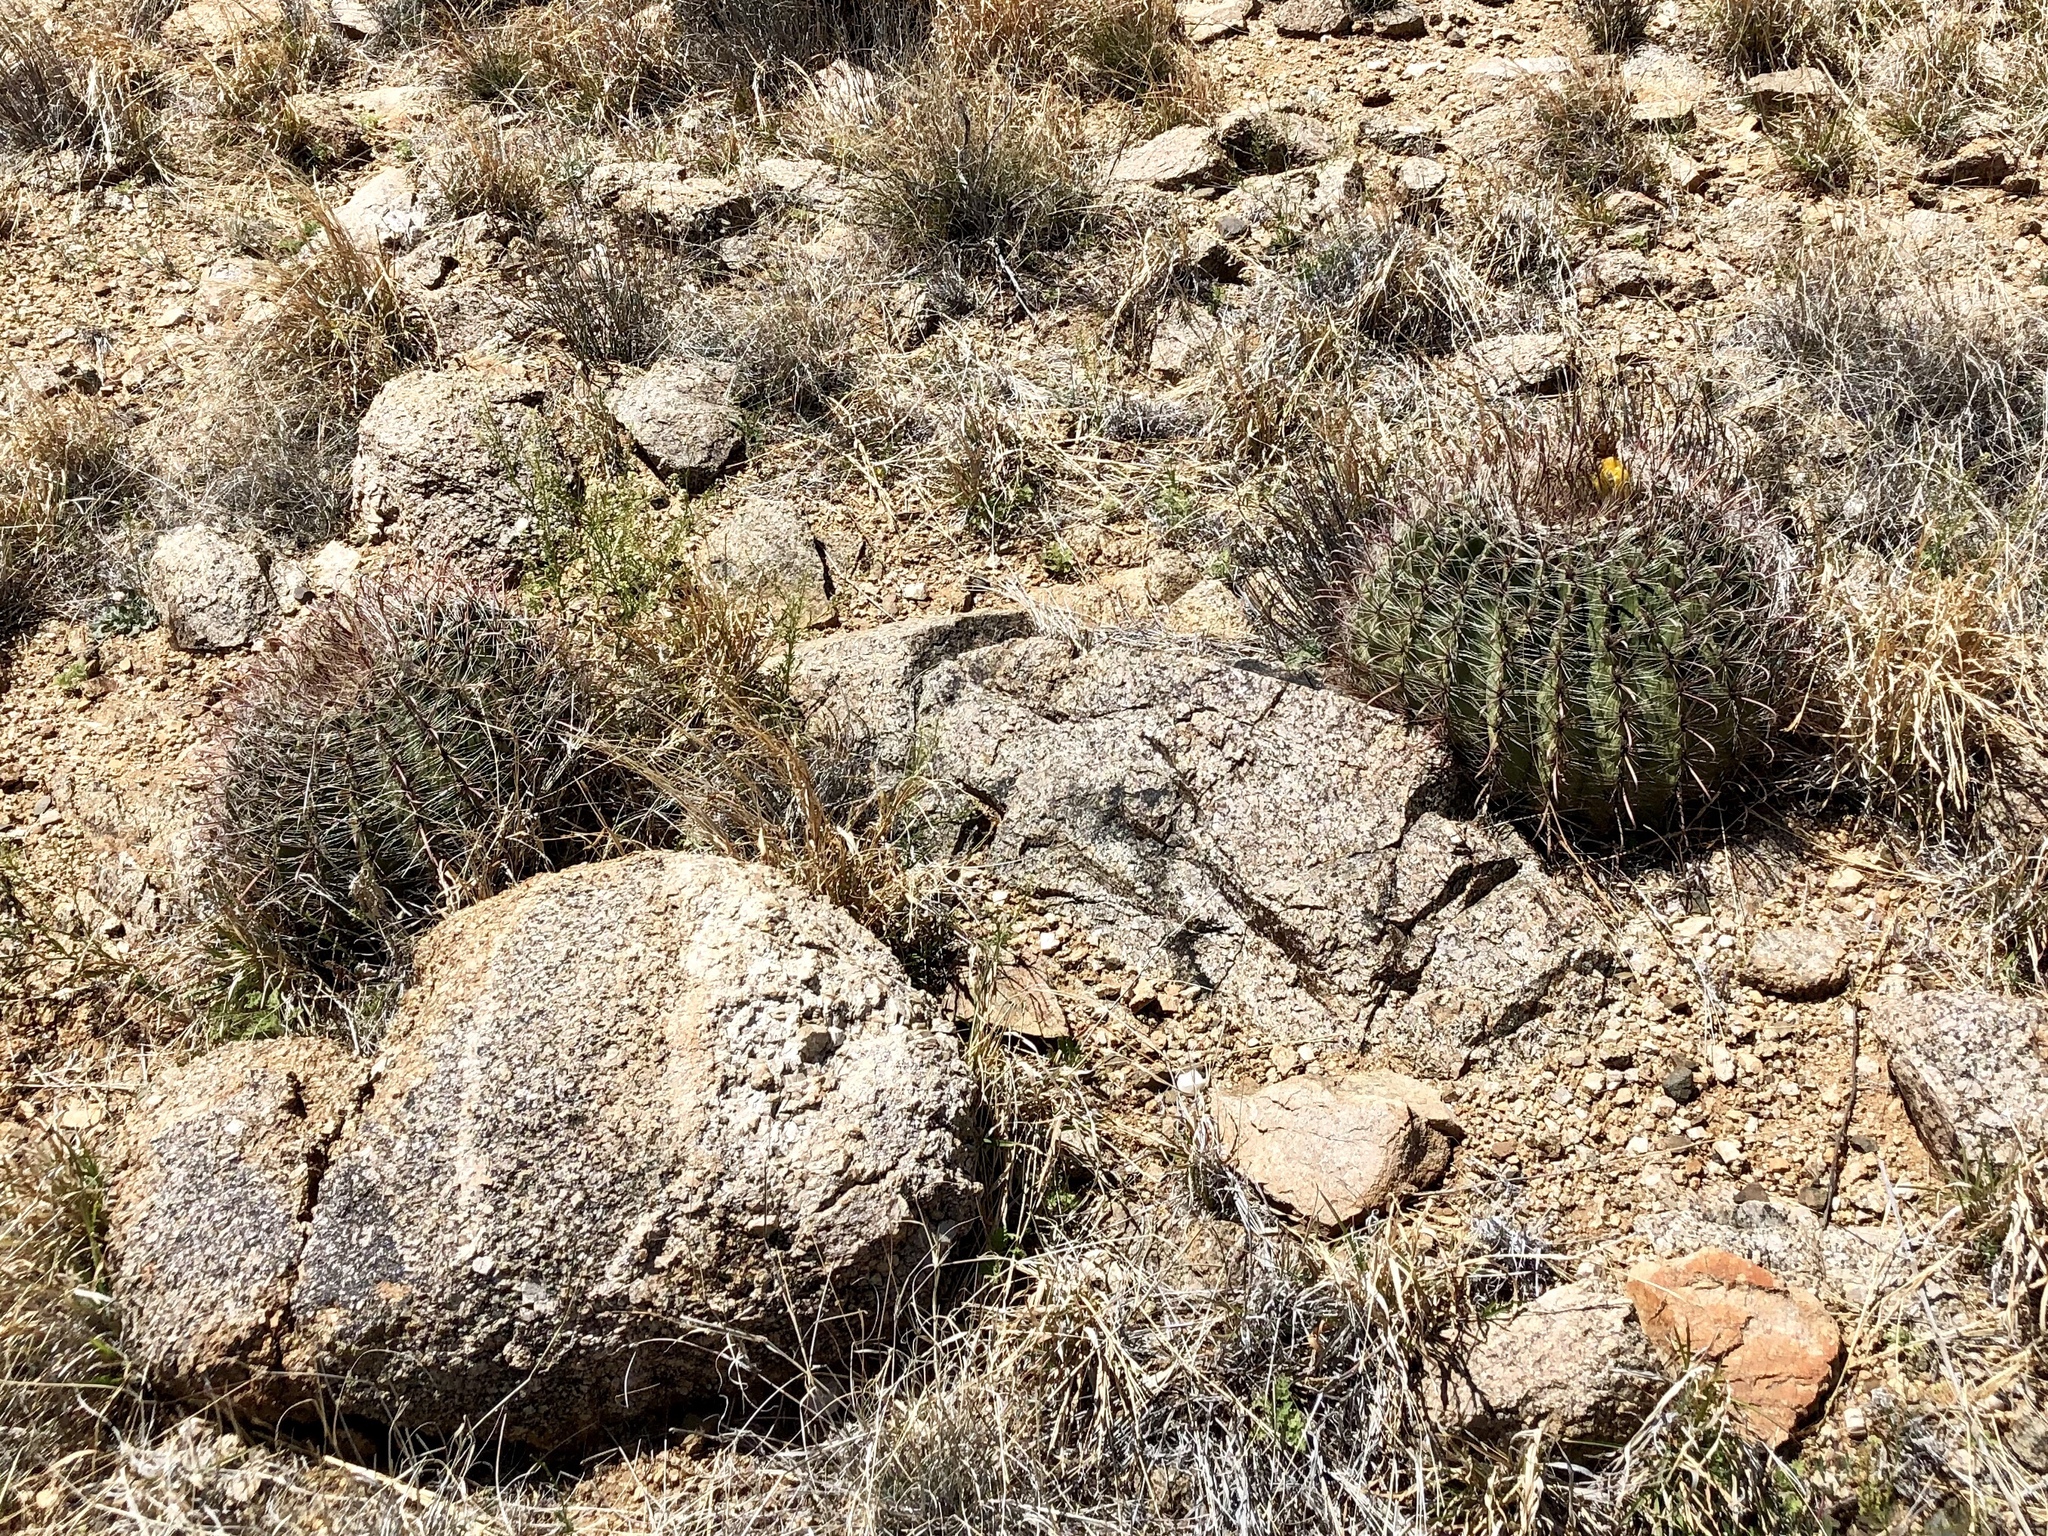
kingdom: Plantae
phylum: Tracheophyta
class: Magnoliopsida
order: Caryophyllales
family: Cactaceae
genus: Ferocactus
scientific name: Ferocactus wislizeni
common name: Candy barrel cactus
